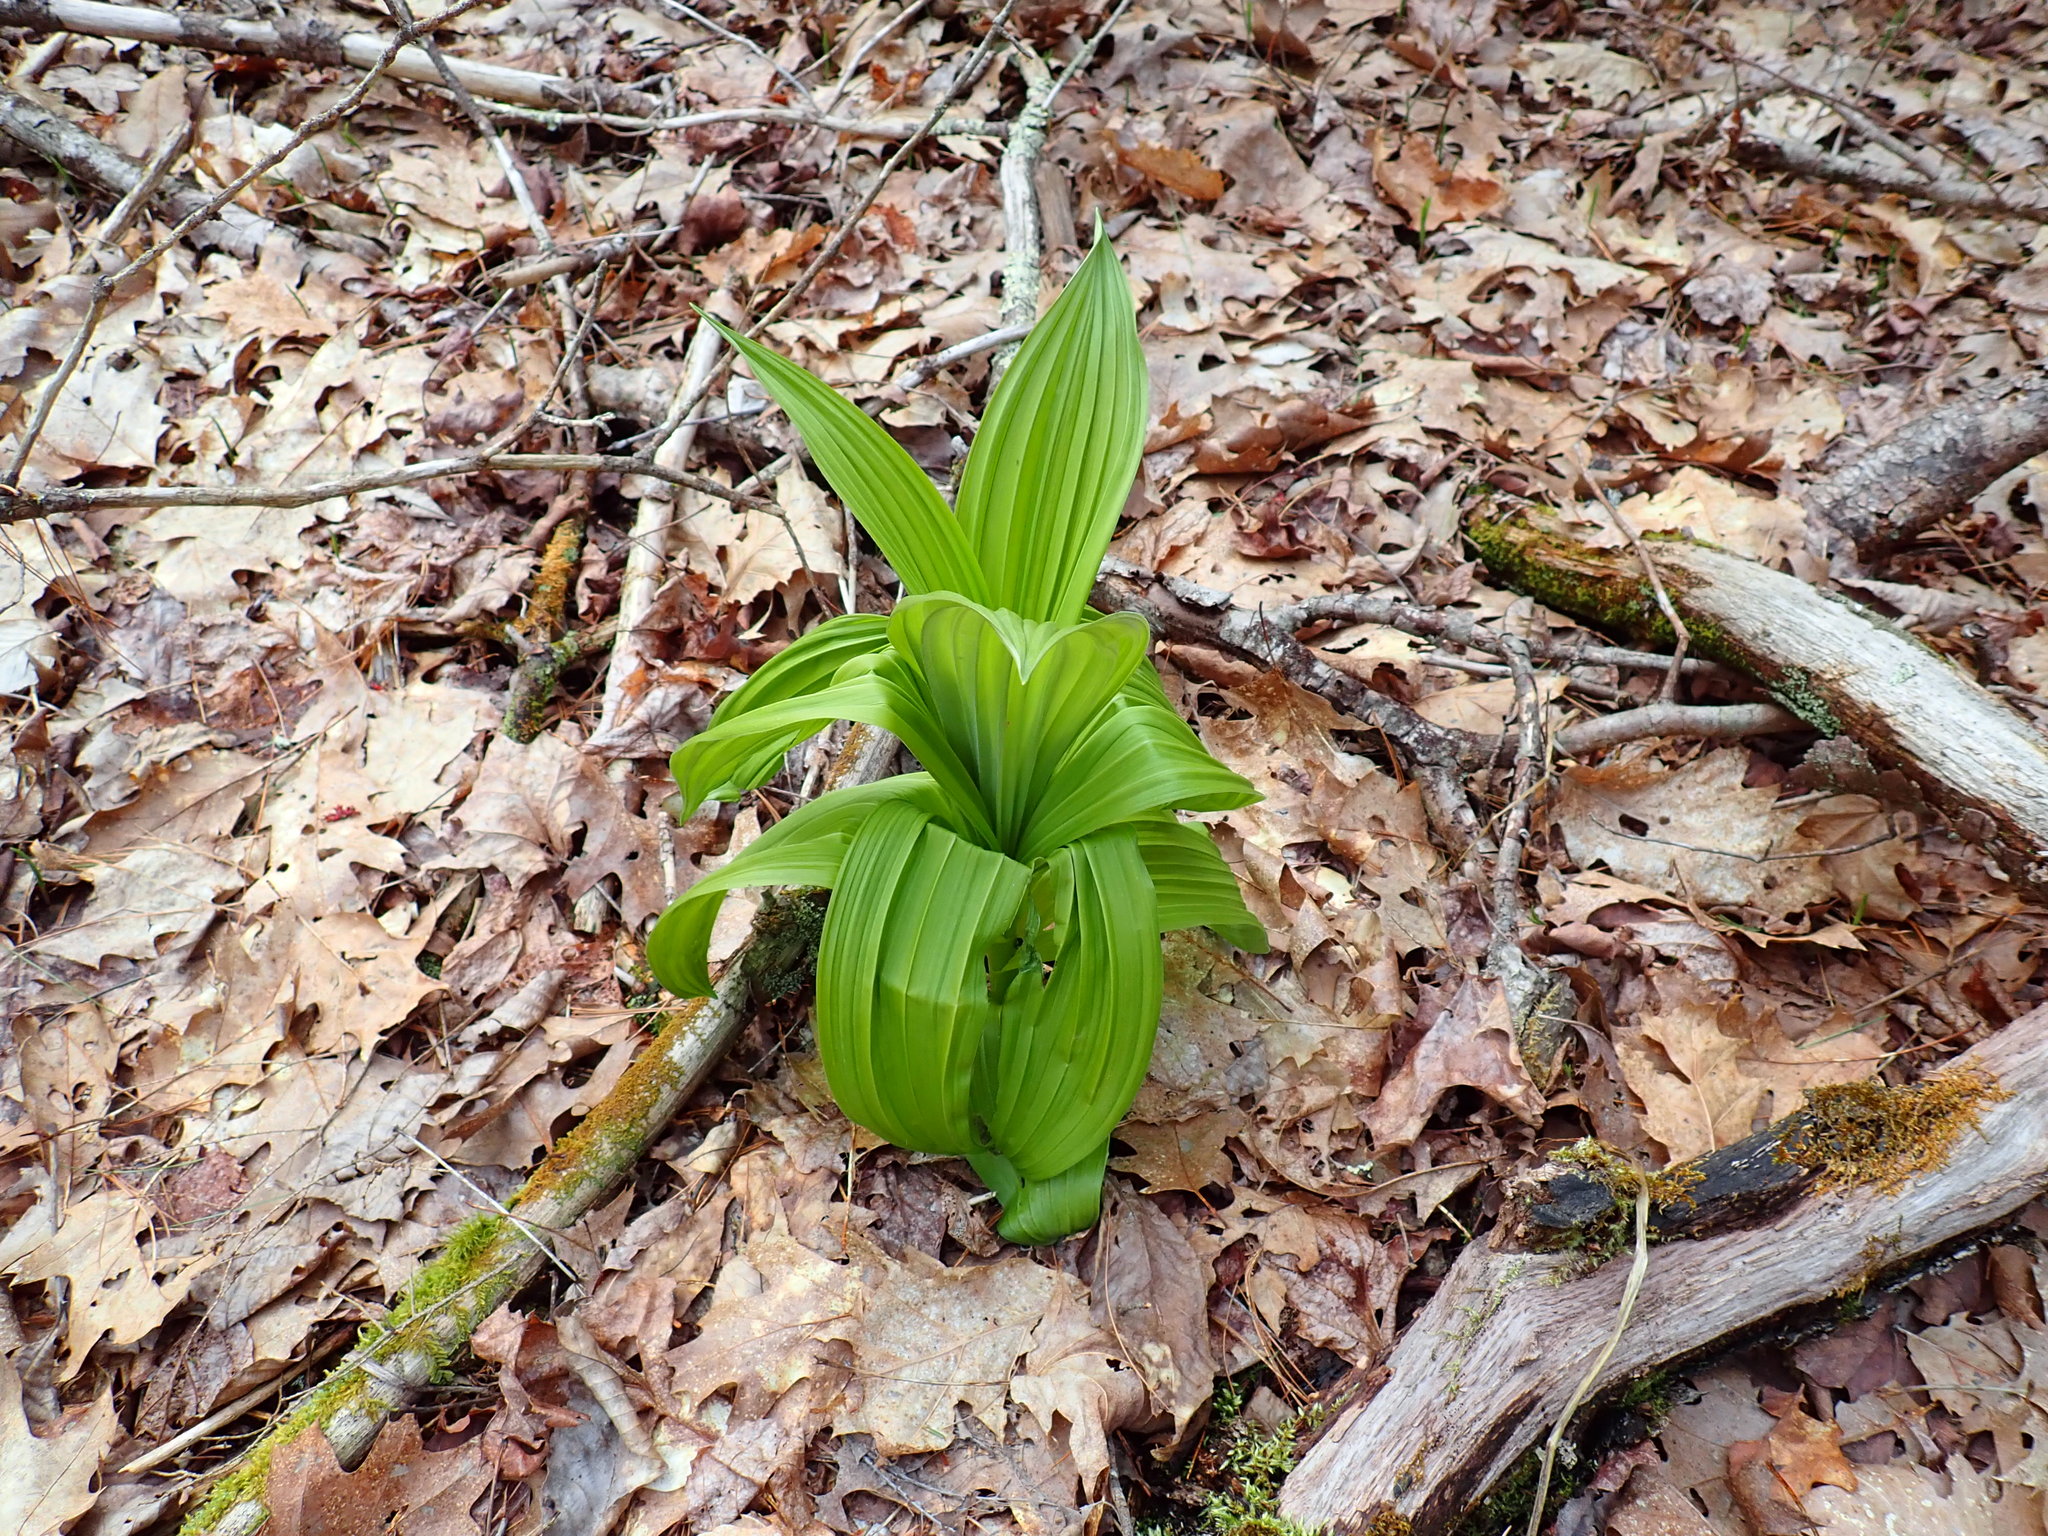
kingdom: Plantae
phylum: Tracheophyta
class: Liliopsida
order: Liliales
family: Melanthiaceae
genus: Veratrum
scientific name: Veratrum viride
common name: American false hellebore
